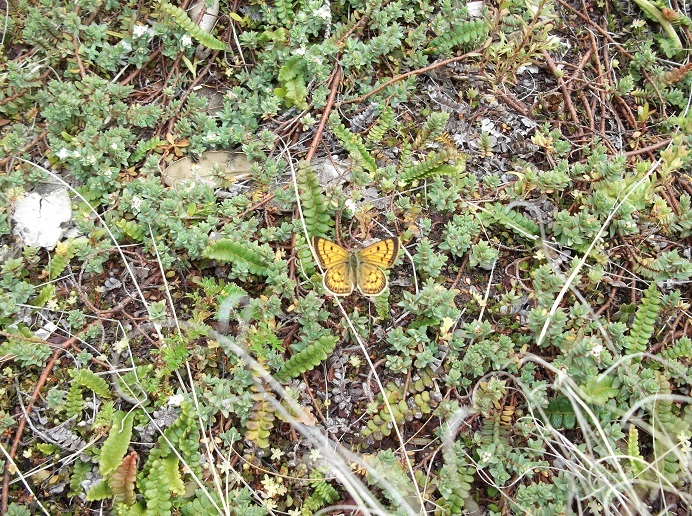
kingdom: Animalia
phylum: Arthropoda
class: Insecta
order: Lepidoptera
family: Lycaenidae
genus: Lycaena
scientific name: Lycaena salustius
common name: North island coastal copper
